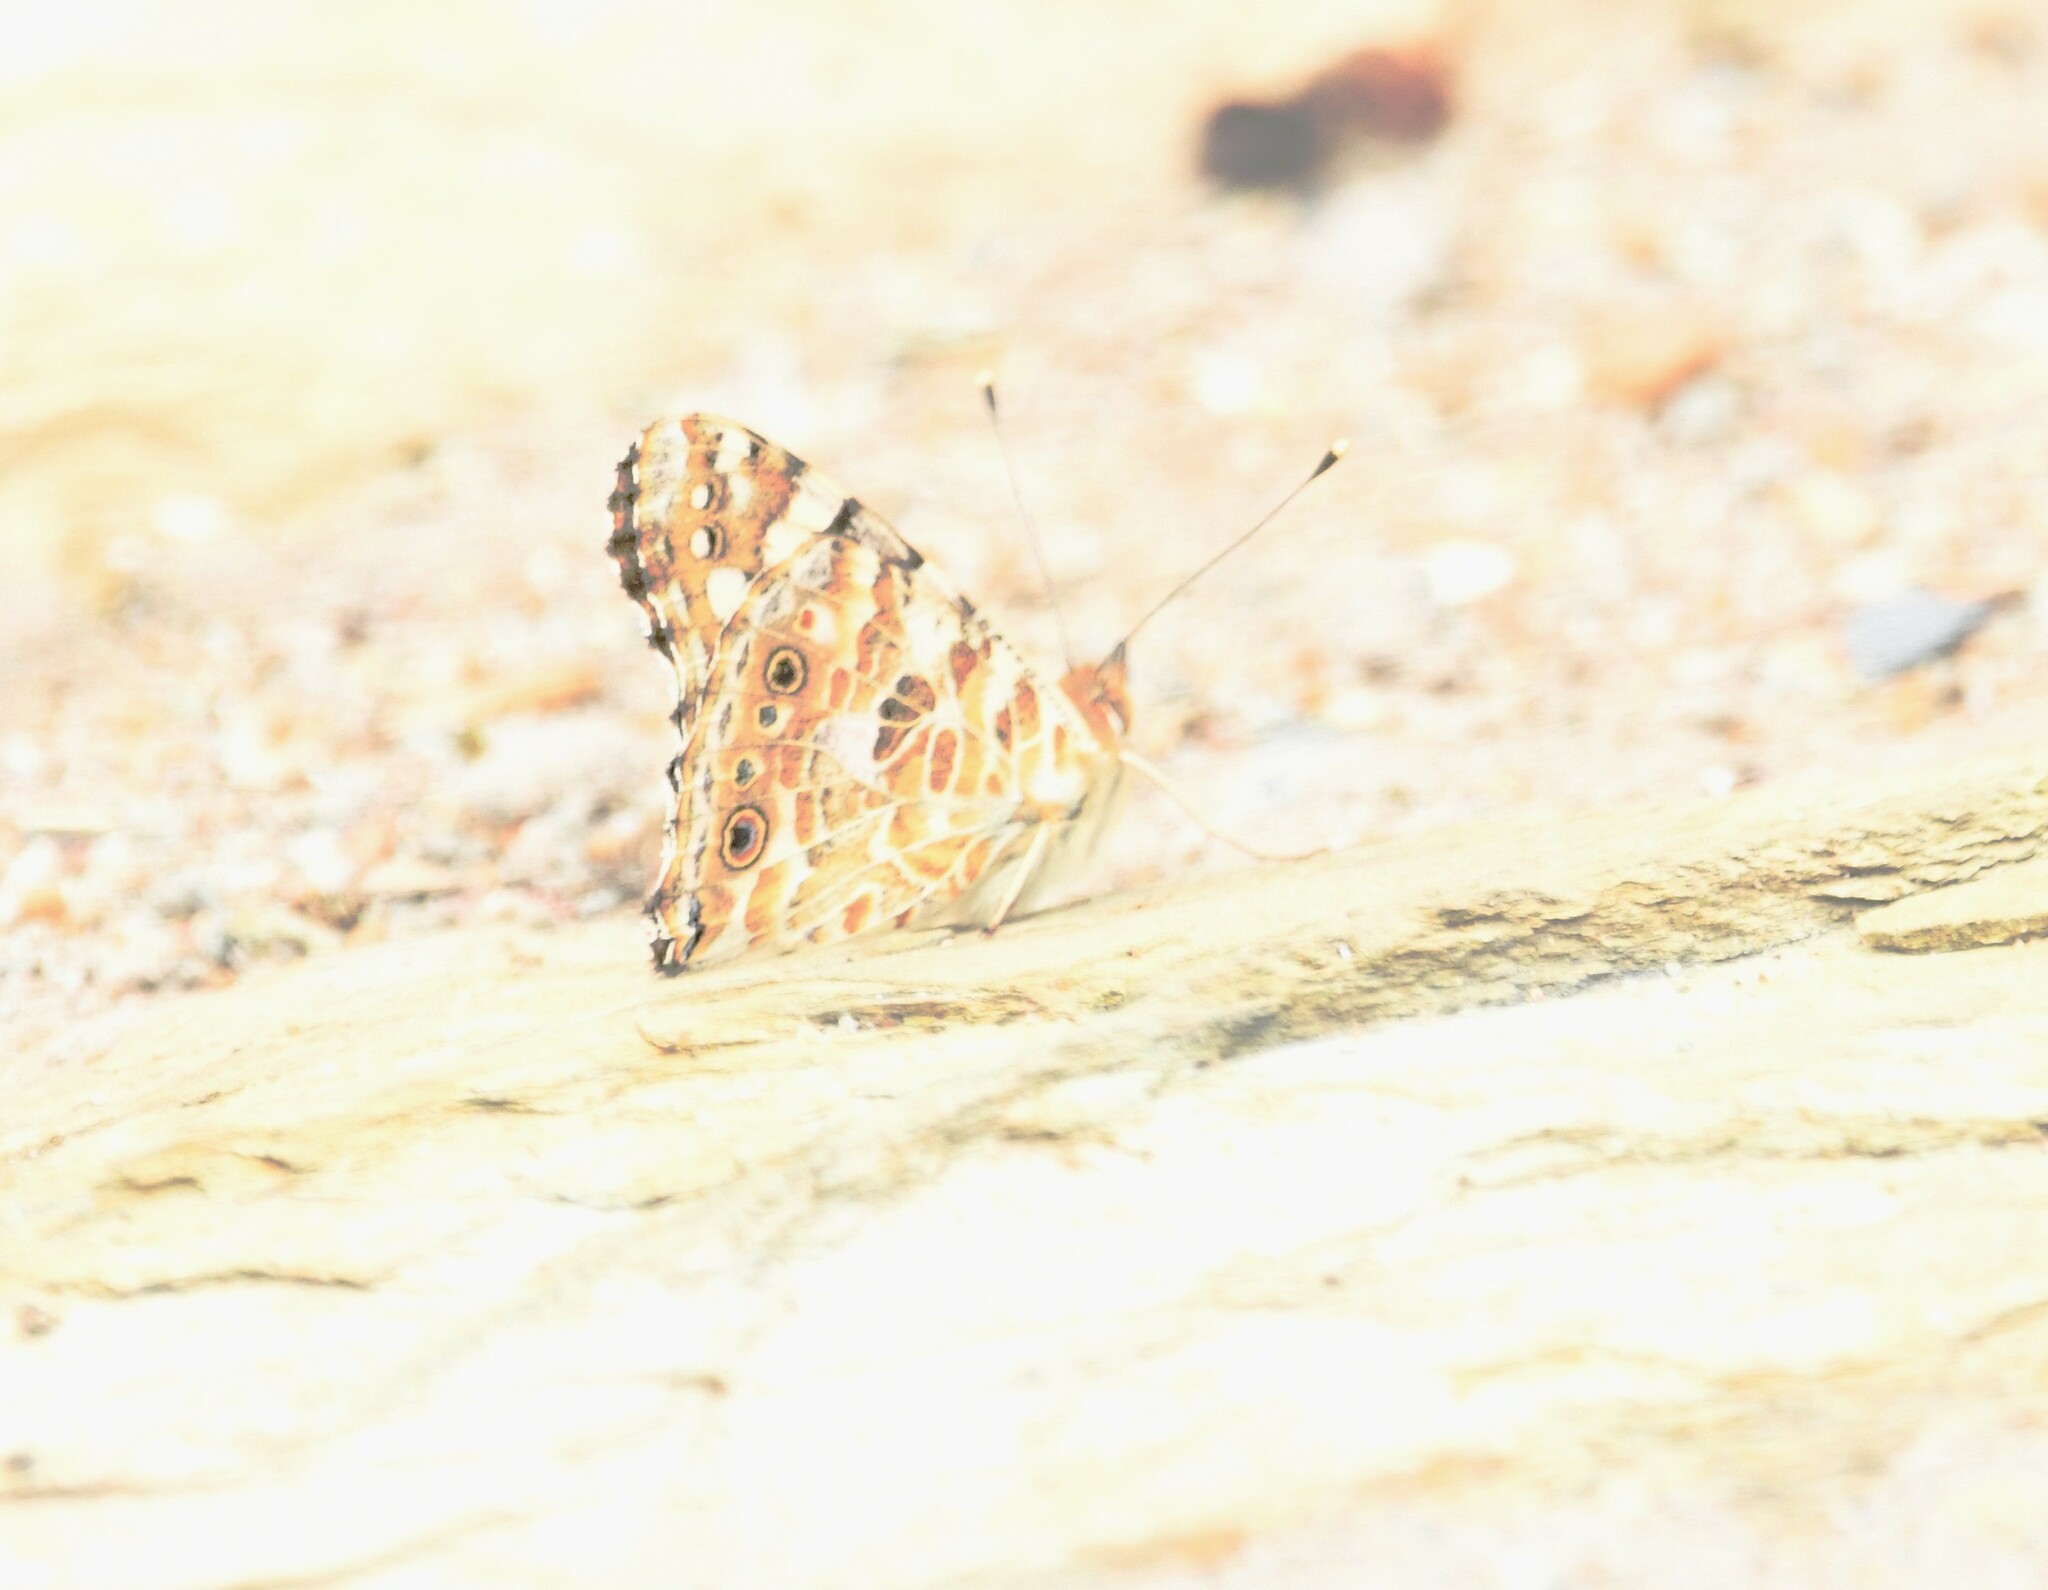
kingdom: Animalia
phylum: Arthropoda
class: Insecta
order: Lepidoptera
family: Nymphalidae
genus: Vanessa
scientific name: Vanessa cardui
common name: Painted lady
